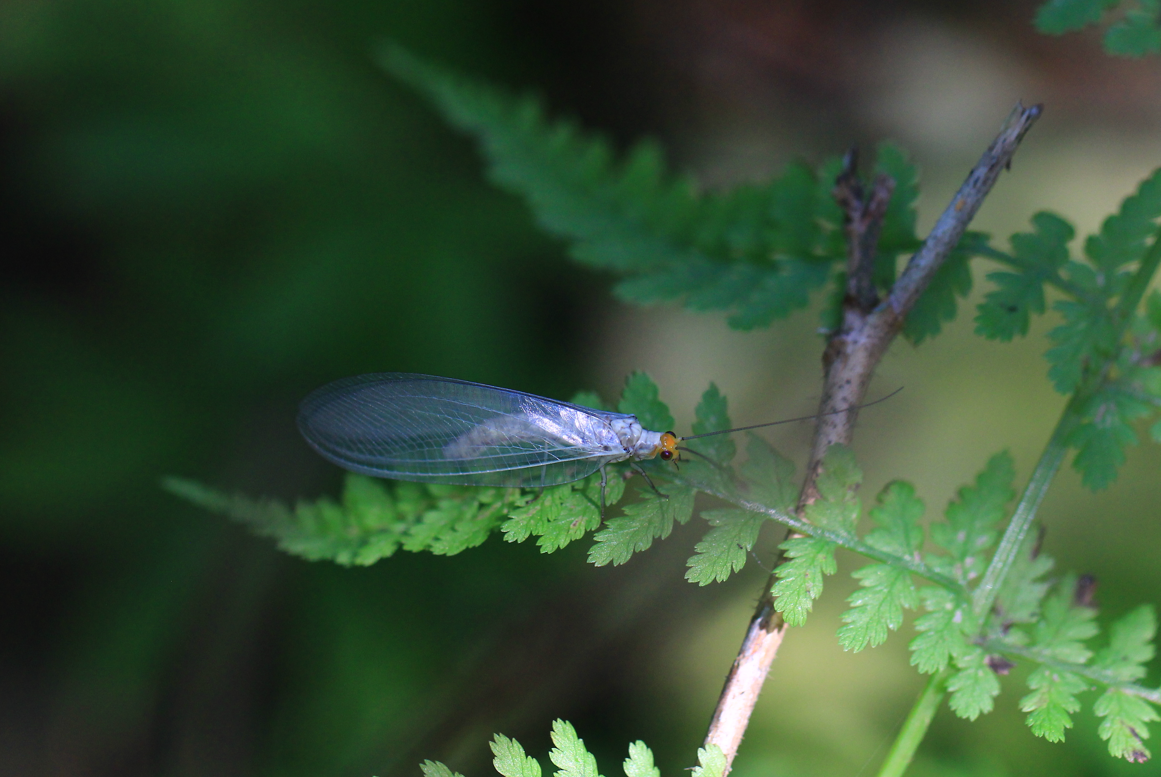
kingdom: Animalia
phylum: Arthropoda
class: Insecta
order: Neuroptera
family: Chrysopidae
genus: Nothochrysa
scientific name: Nothochrysa fulviceps
